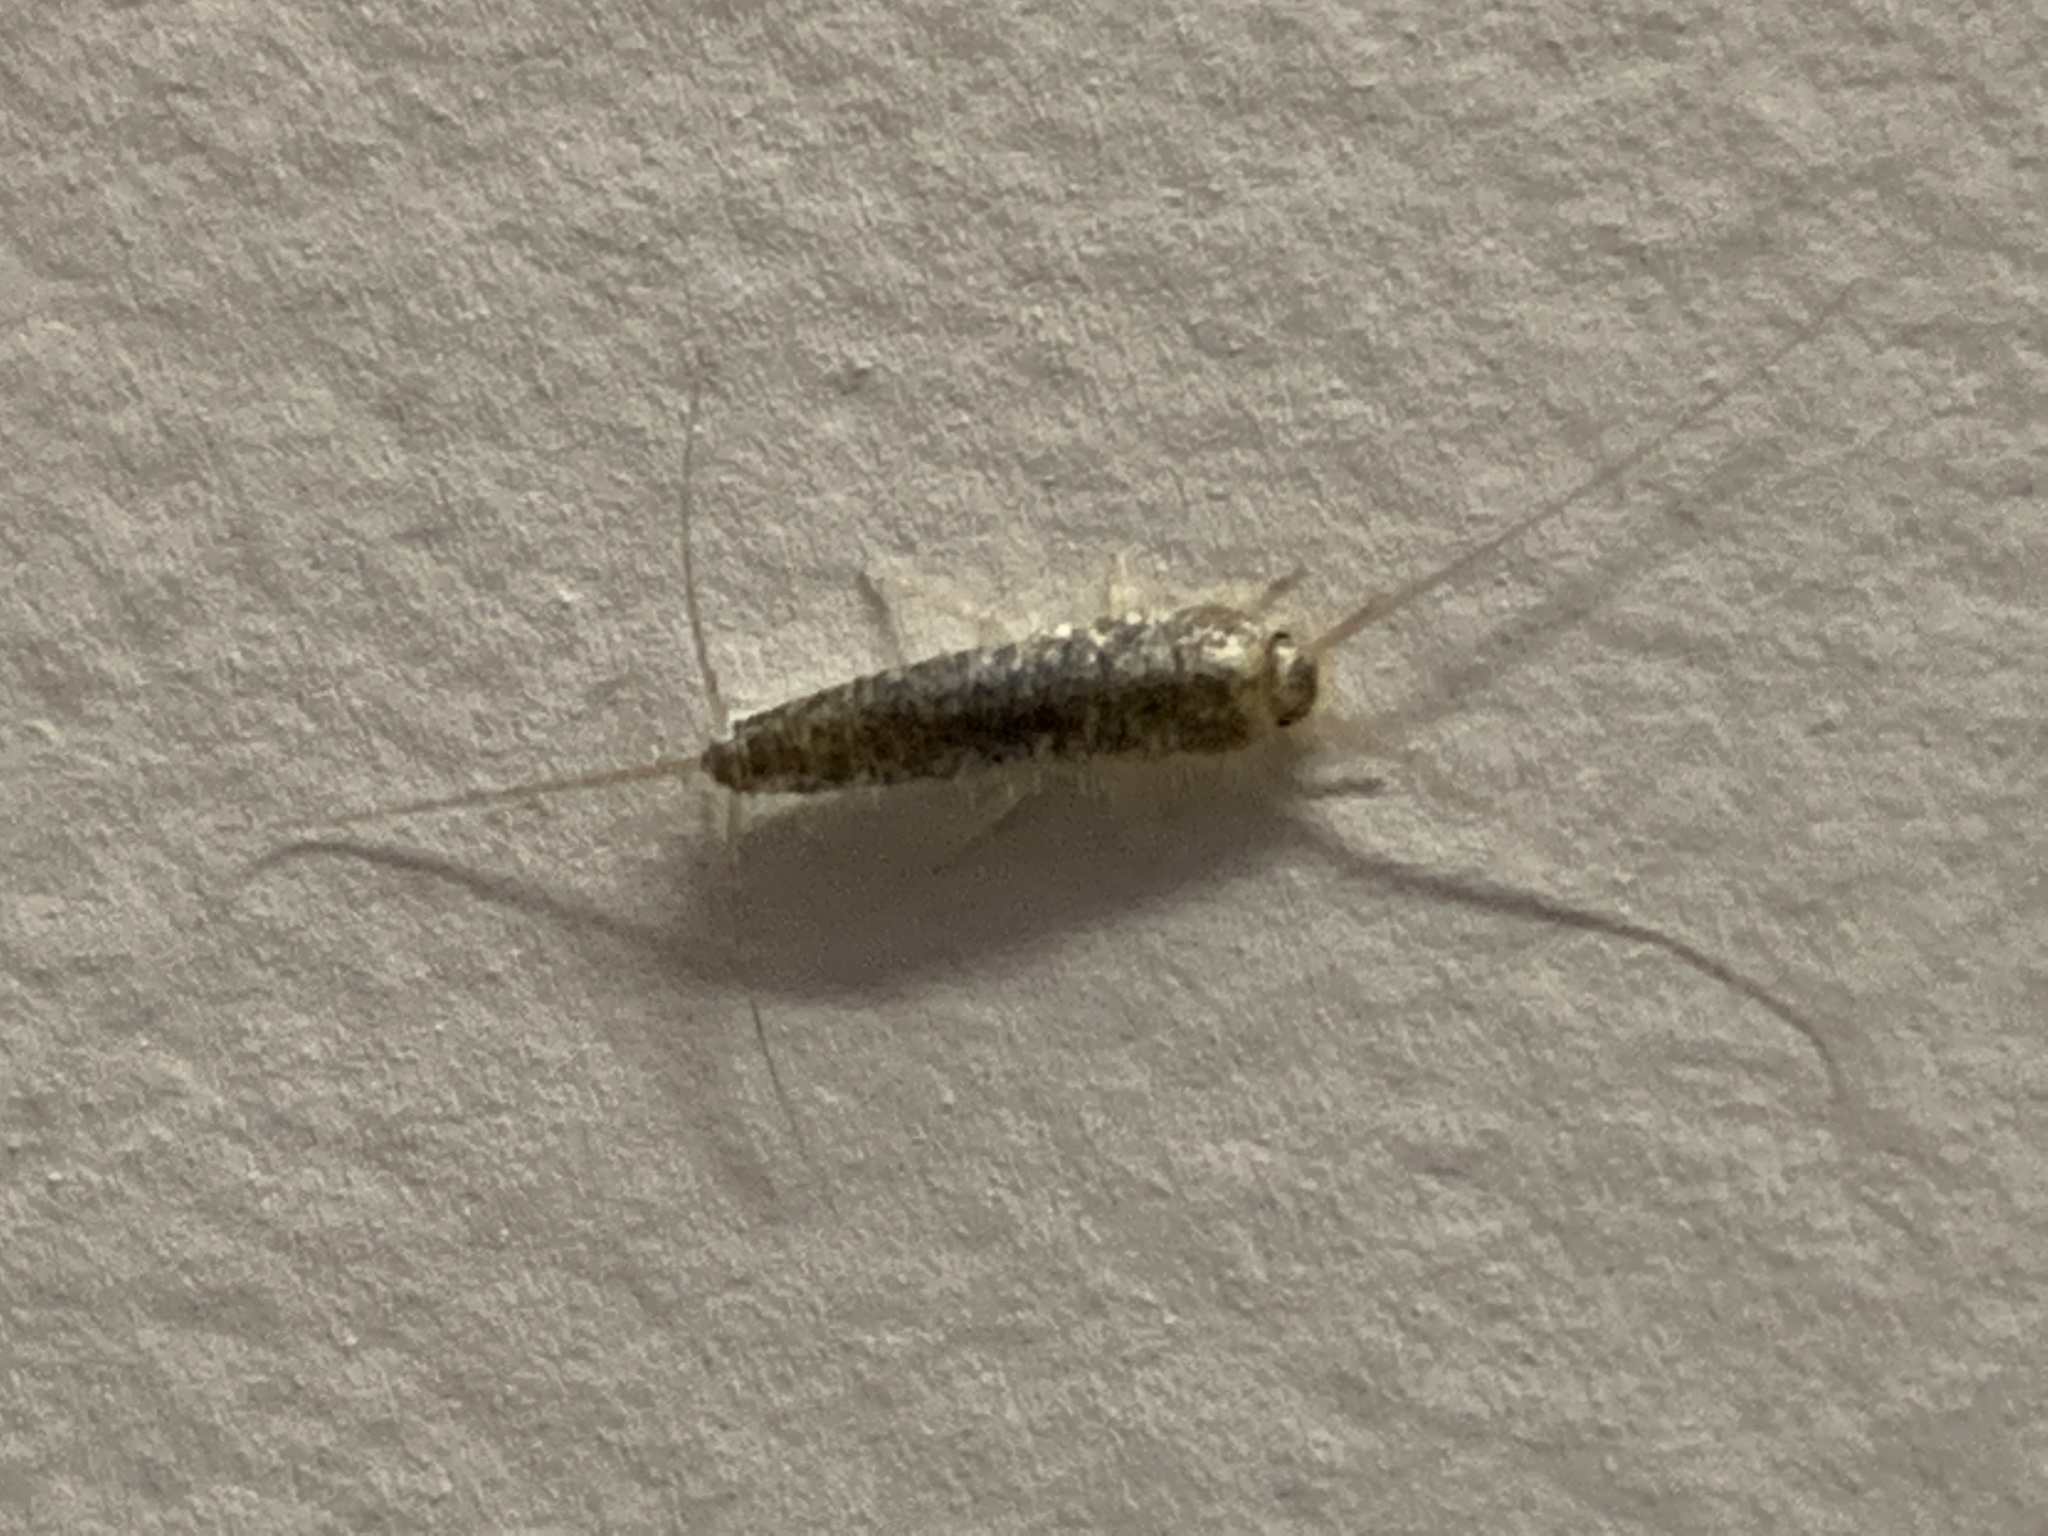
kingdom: Animalia
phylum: Arthropoda
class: Insecta
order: Zygentoma
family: Lepismatidae
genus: Ctenolepisma
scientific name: Ctenolepisma longicaudatum
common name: Silverfish
